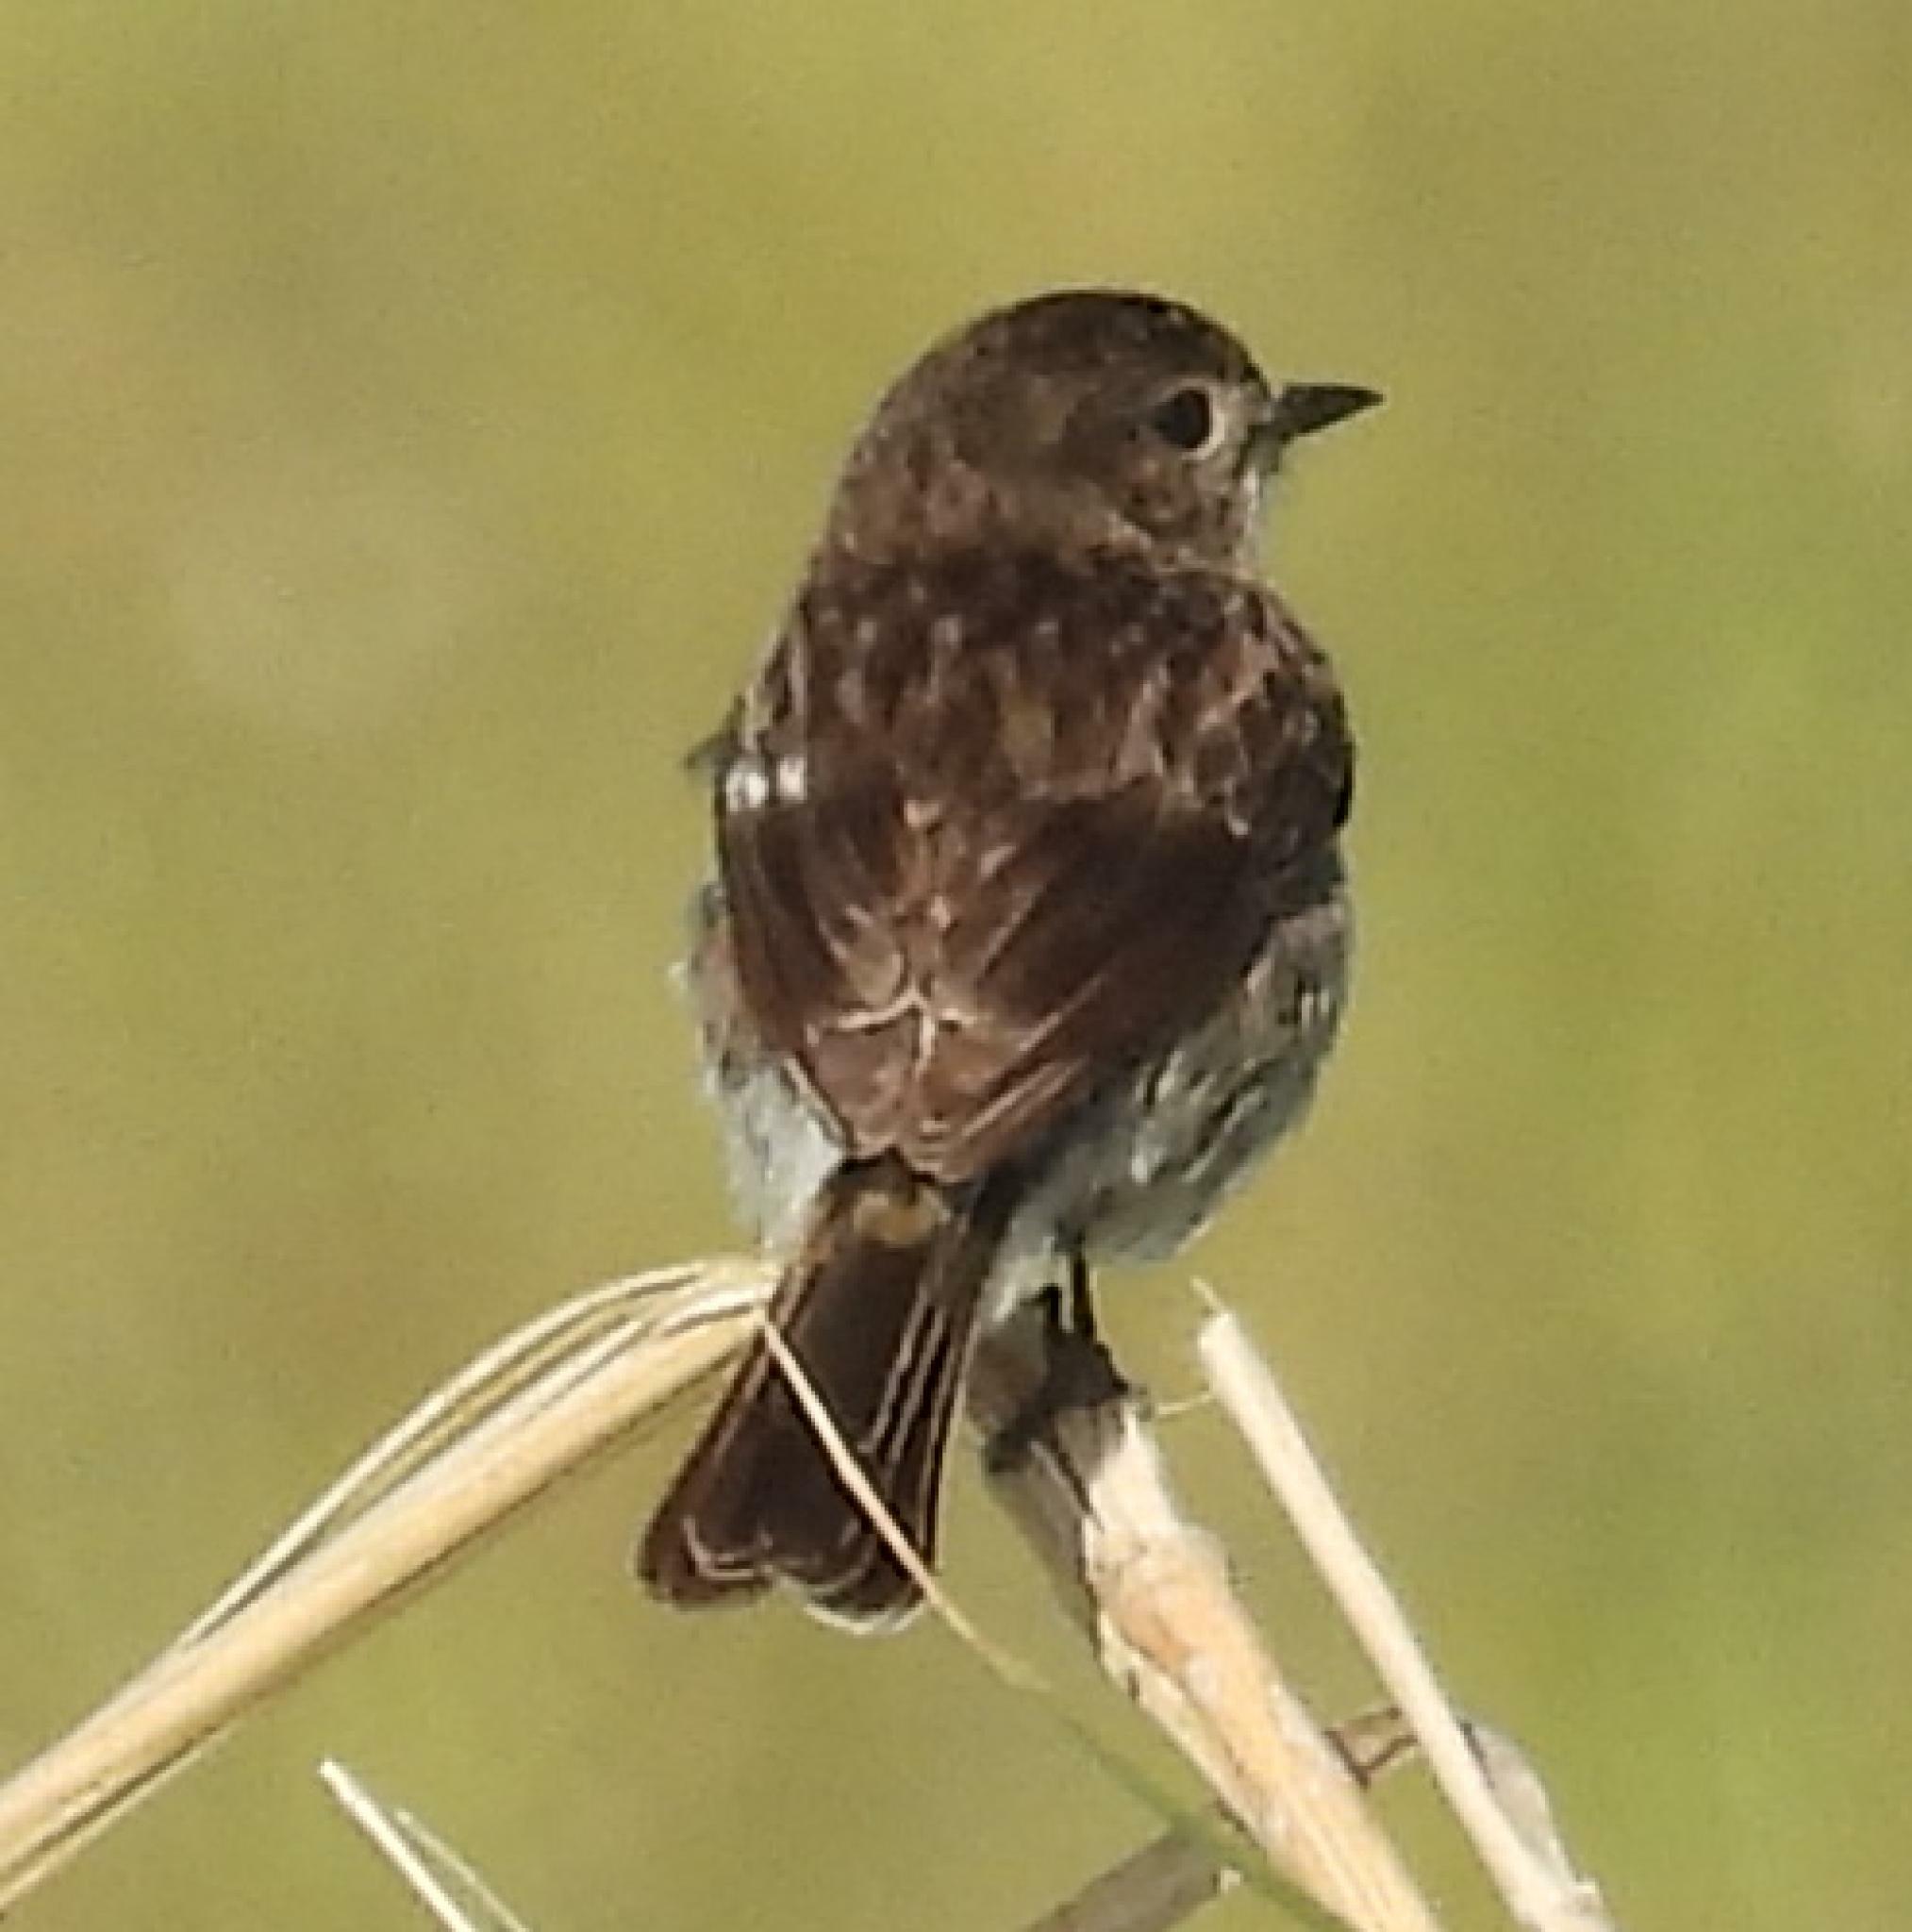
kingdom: Animalia
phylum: Chordata
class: Aves
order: Passeriformes
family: Muscicapidae
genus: Saxicola
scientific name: Saxicola torquatus
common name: African stonechat
